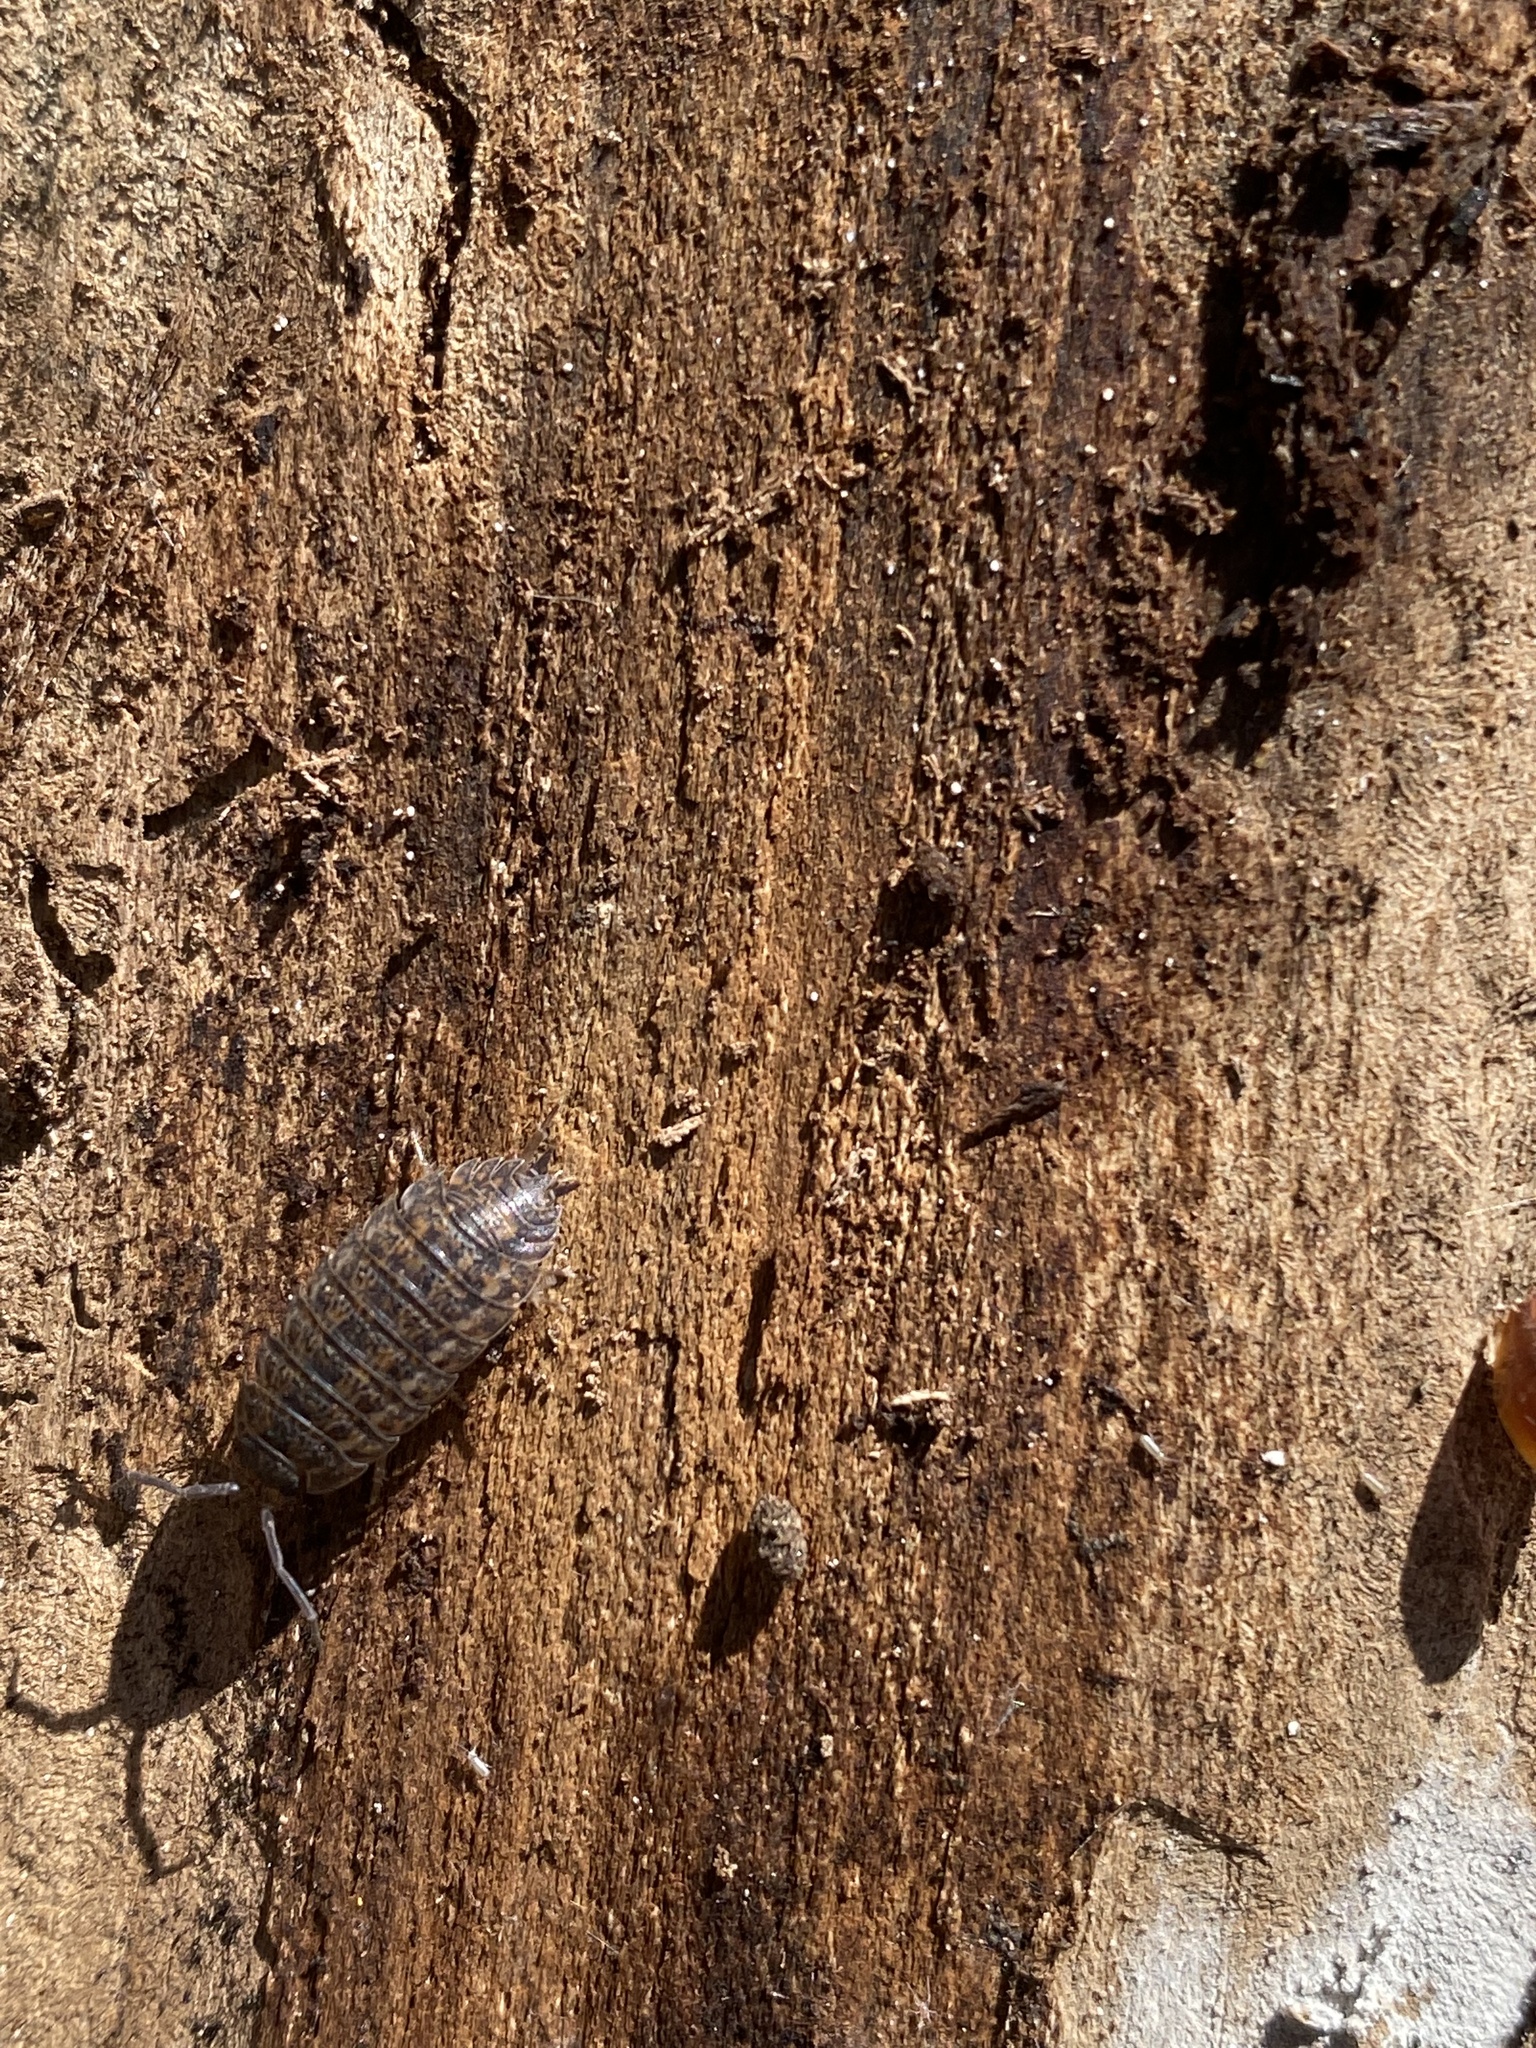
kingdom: Animalia
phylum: Arthropoda
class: Malacostraca
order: Isopoda
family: Trachelipodidae
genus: Trachelipus
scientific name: Trachelipus rathkii
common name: Isopod
